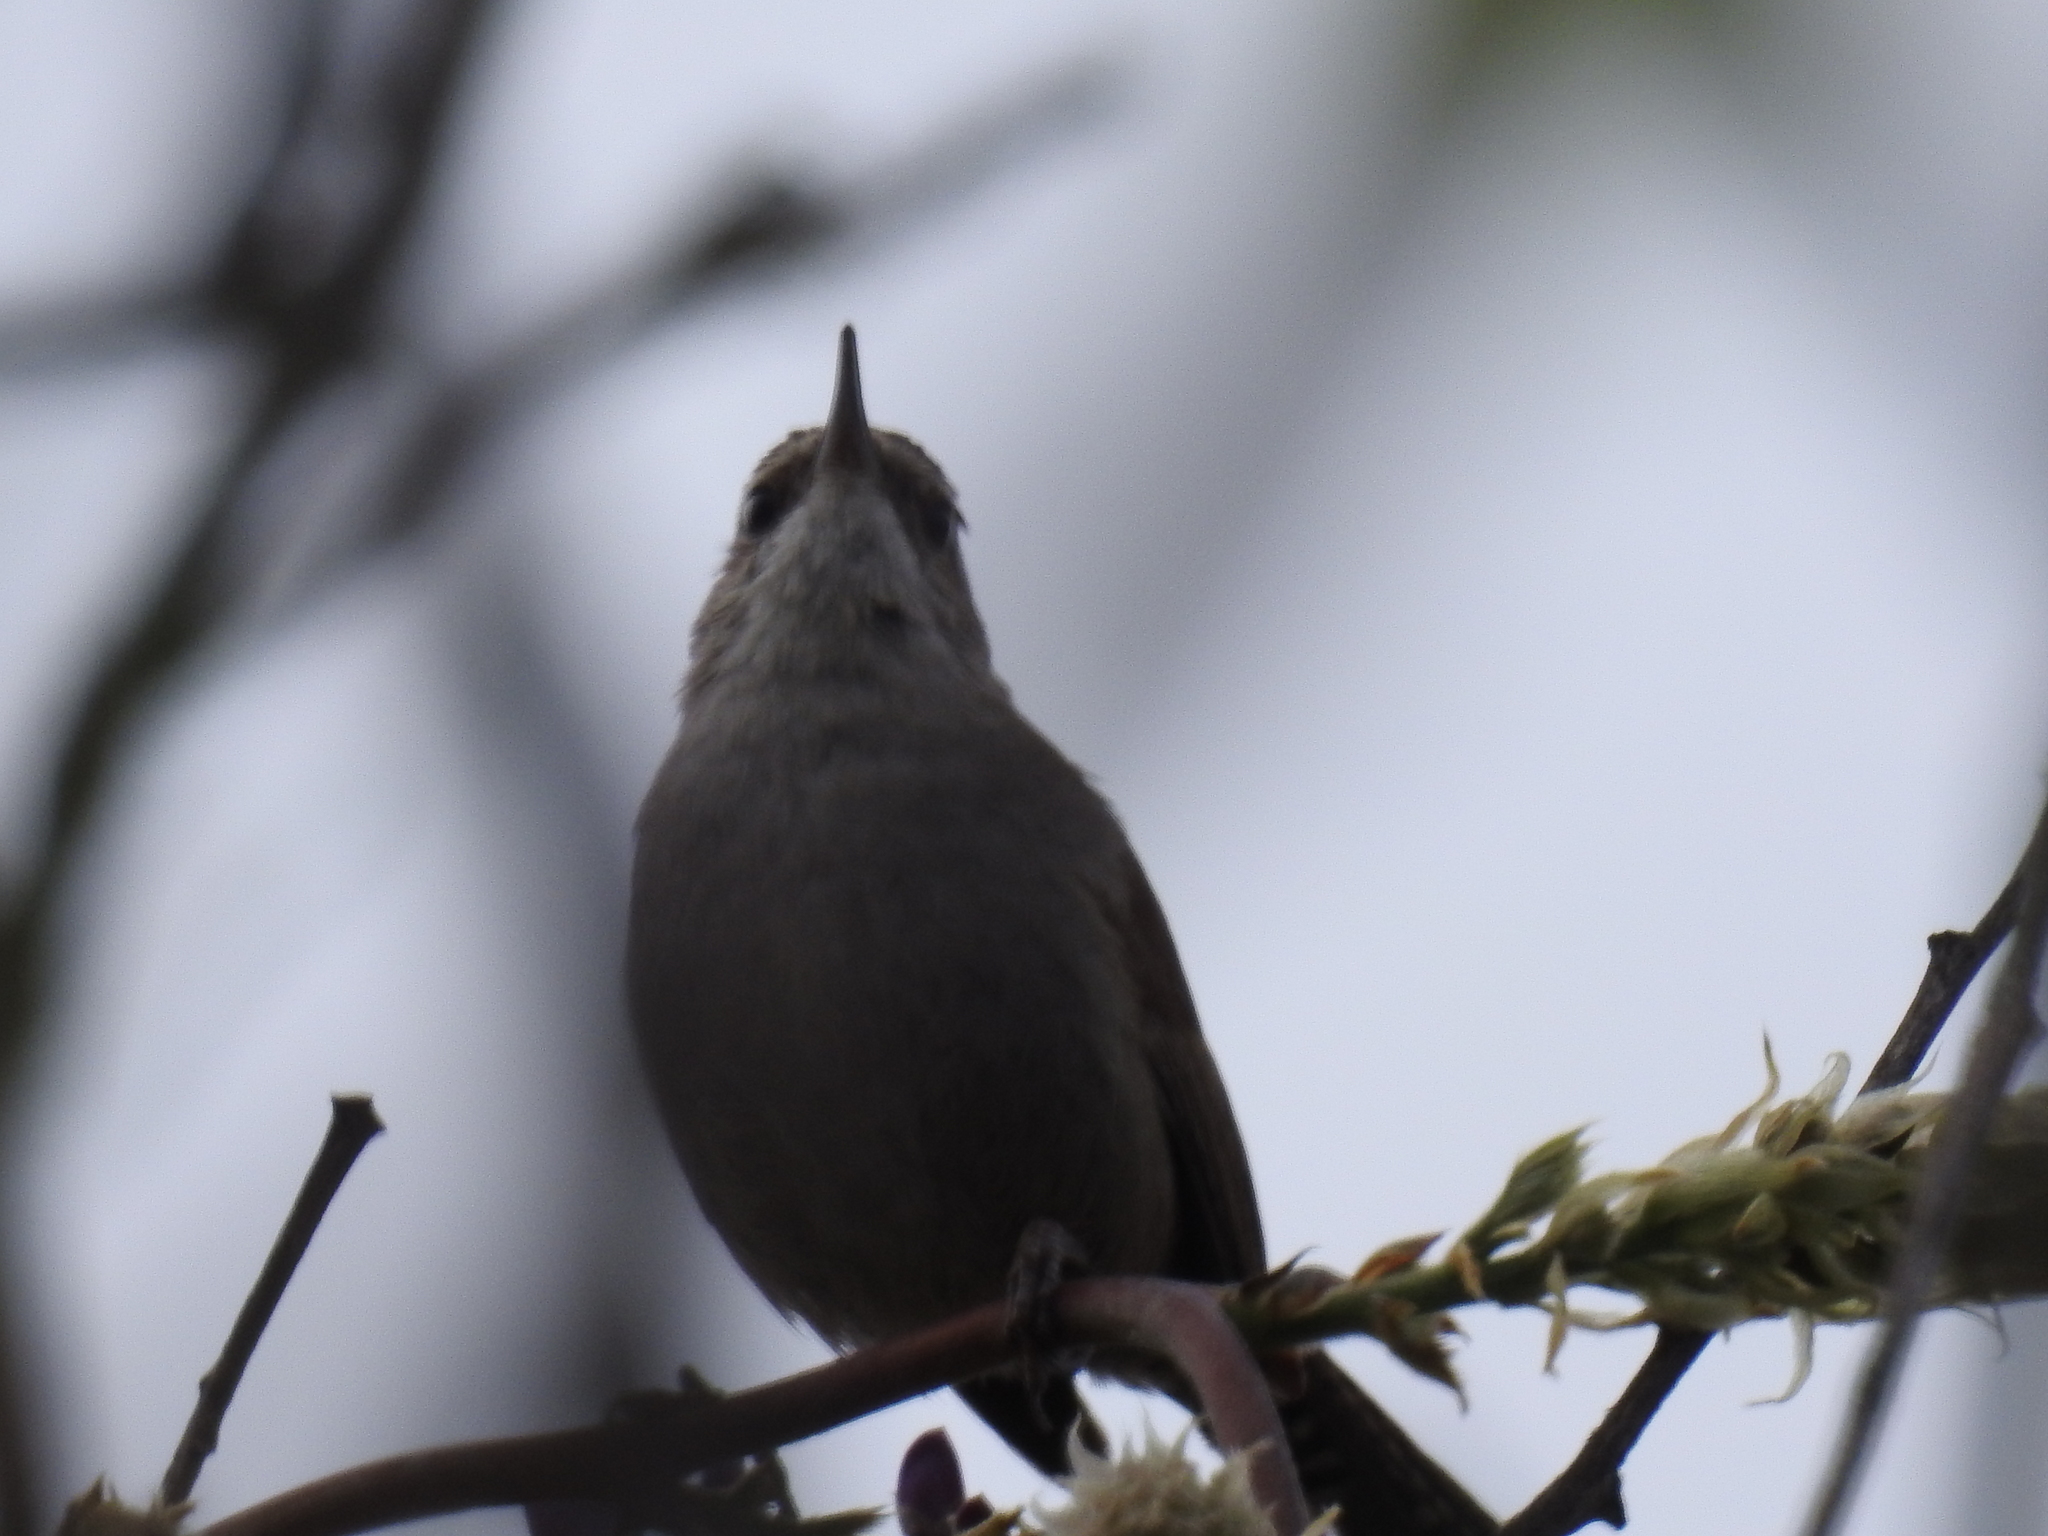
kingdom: Animalia
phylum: Chordata
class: Aves
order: Passeriformes
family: Troglodytidae
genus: Thryomanes
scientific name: Thryomanes bewickii
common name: Bewick's wren
